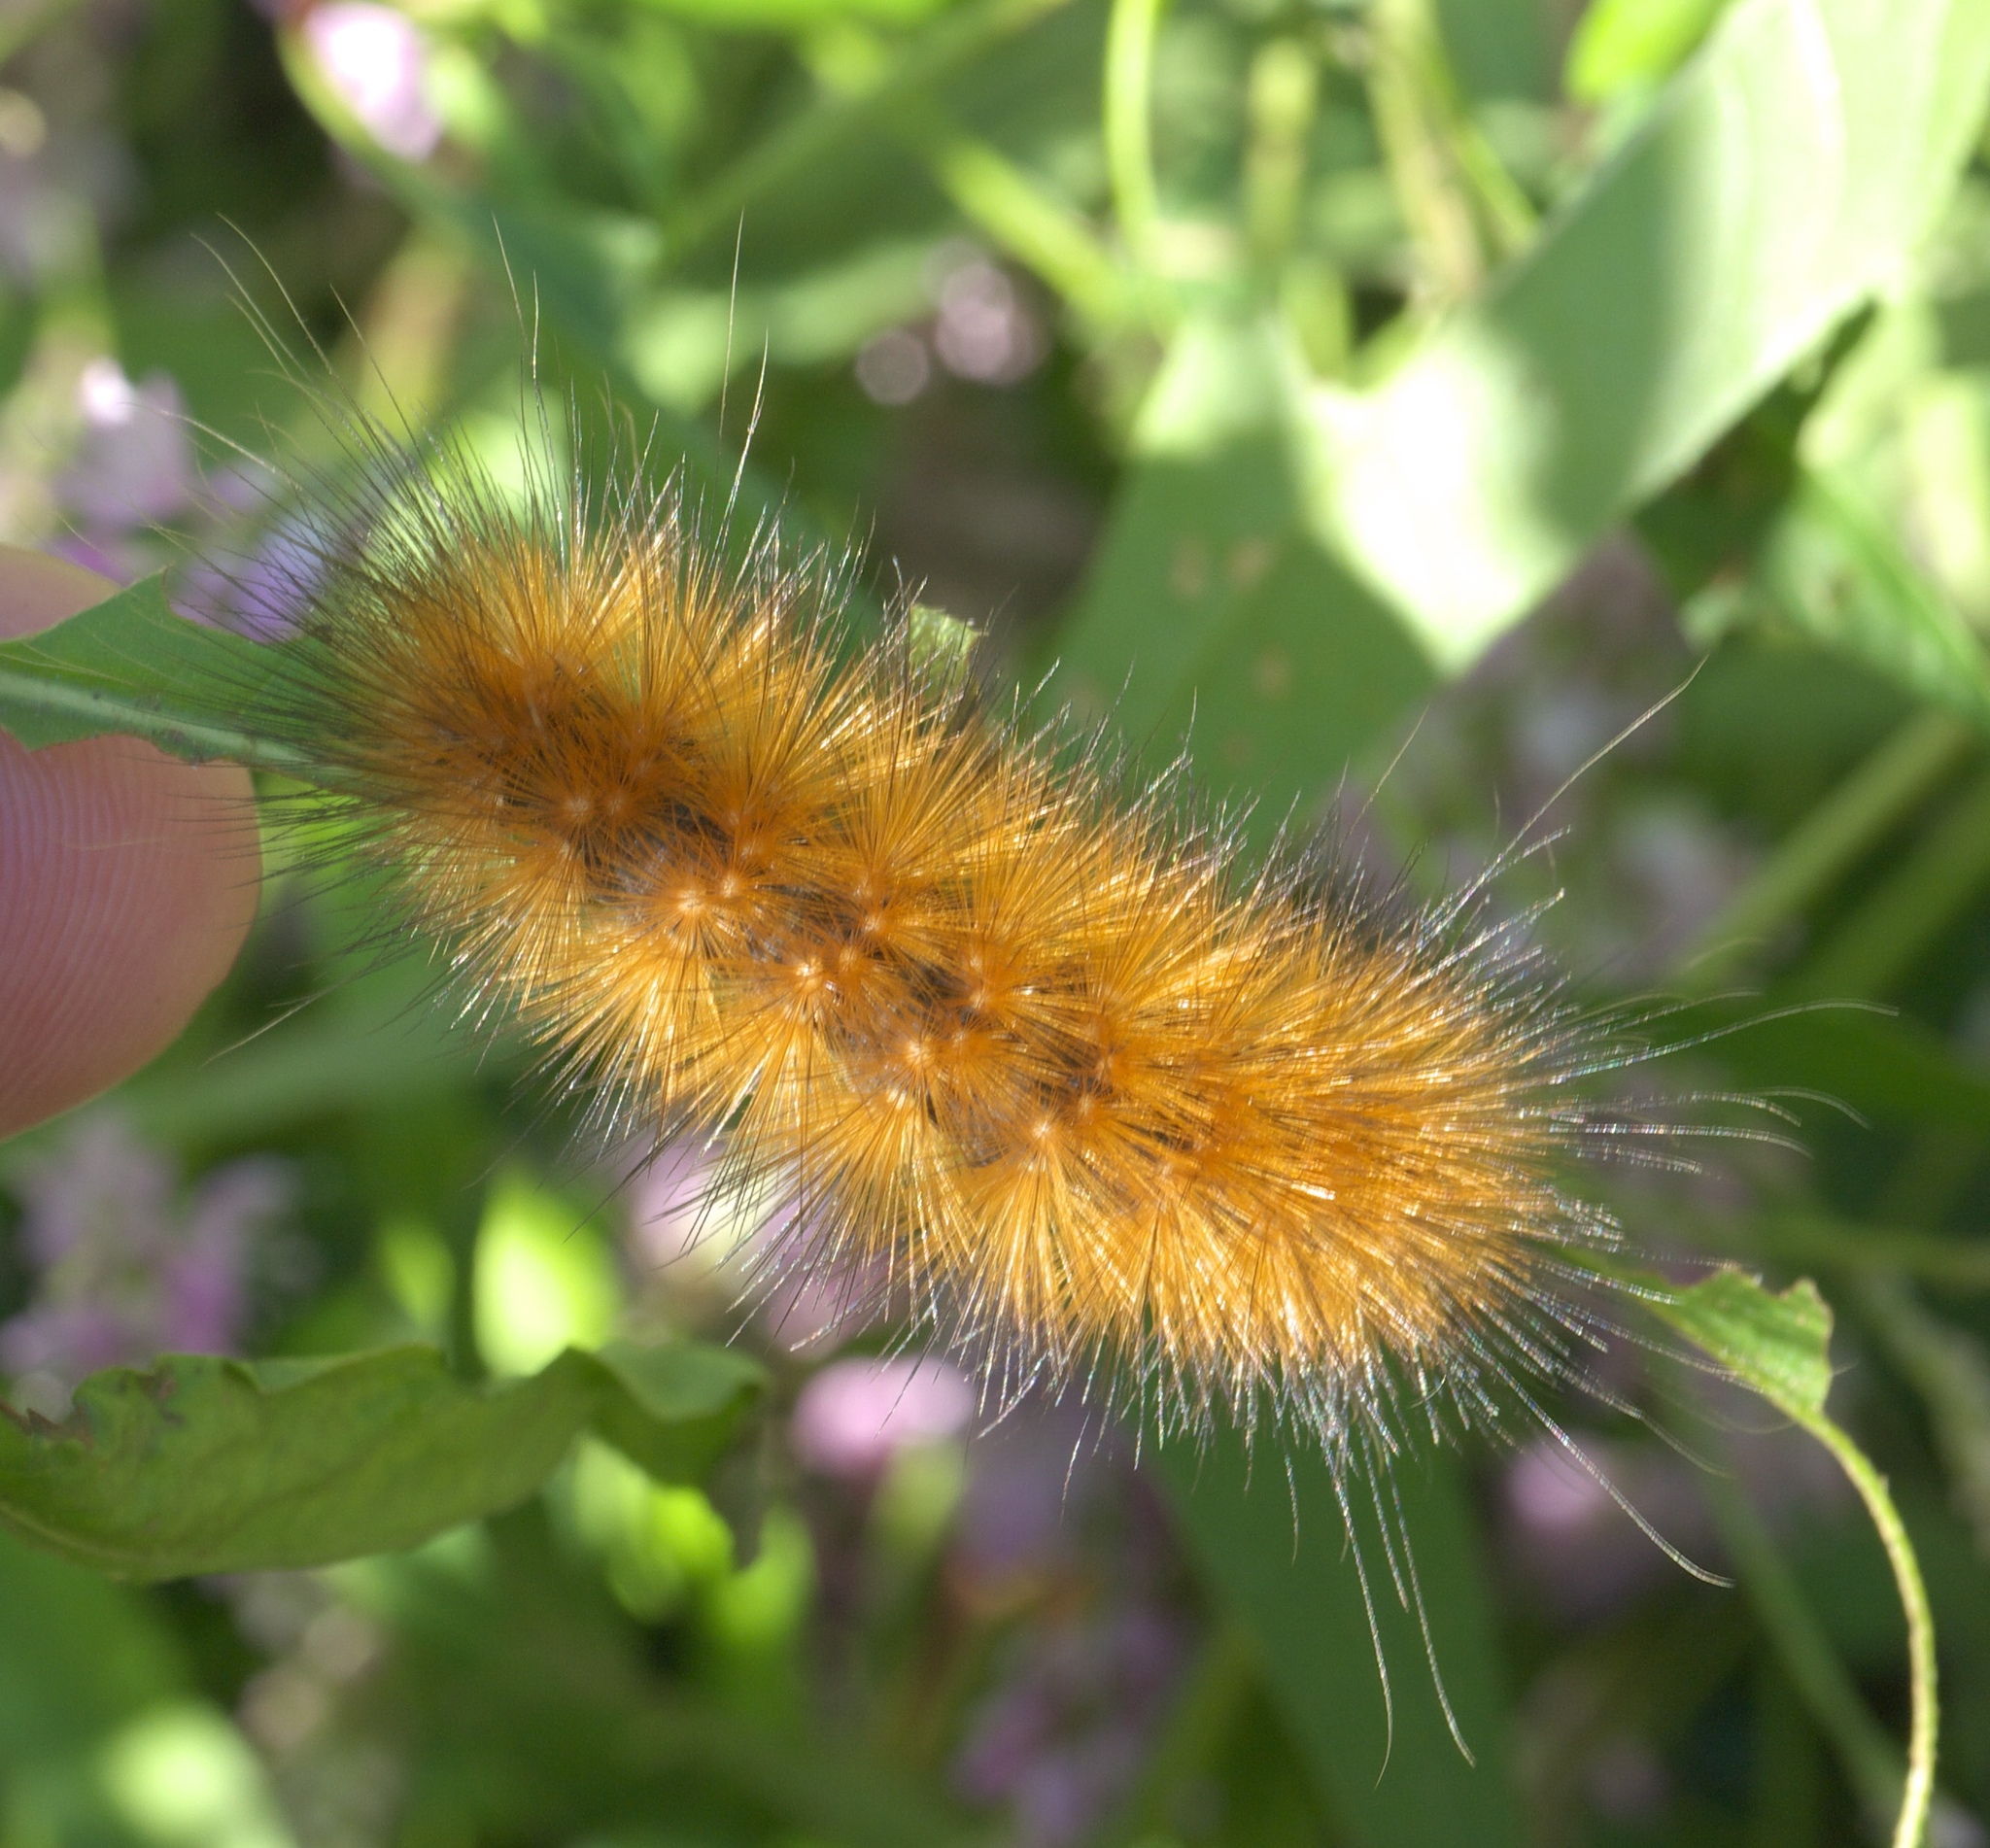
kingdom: Animalia
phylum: Arthropoda
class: Insecta
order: Lepidoptera
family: Erebidae
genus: Spilosoma
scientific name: Spilosoma virginica
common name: Virginia tiger moth
